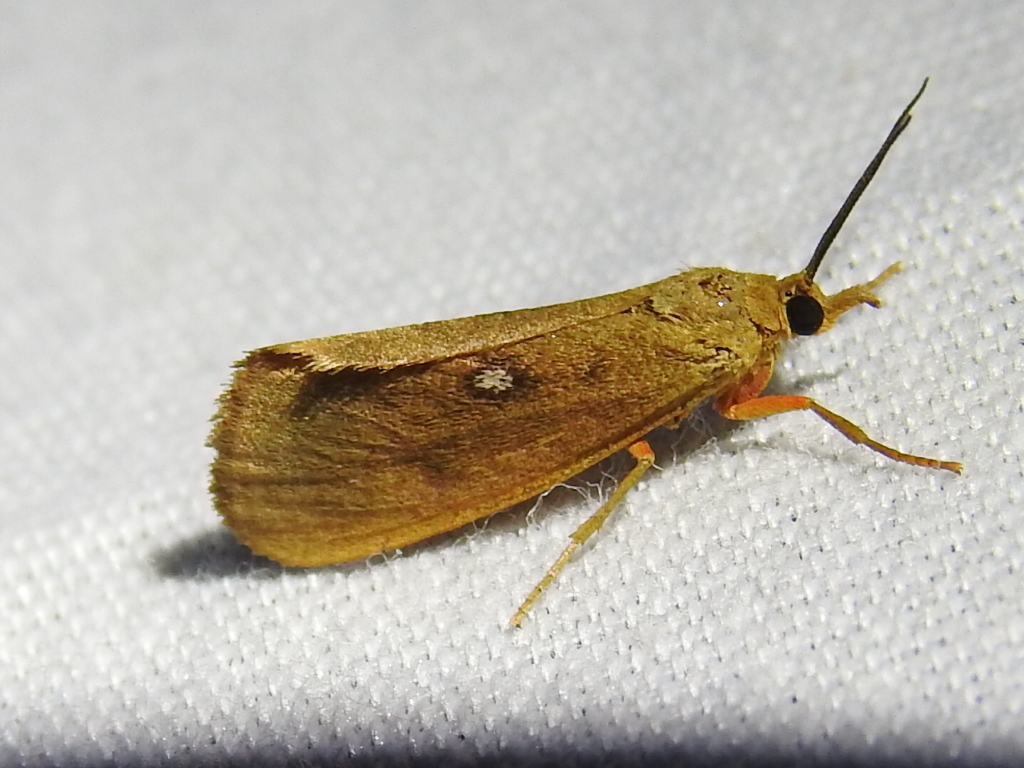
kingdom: Animalia
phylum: Arthropoda
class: Insecta
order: Lepidoptera
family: Erebidae
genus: Virbia
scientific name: Virbia aurantiaca
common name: Orange virbia moth
